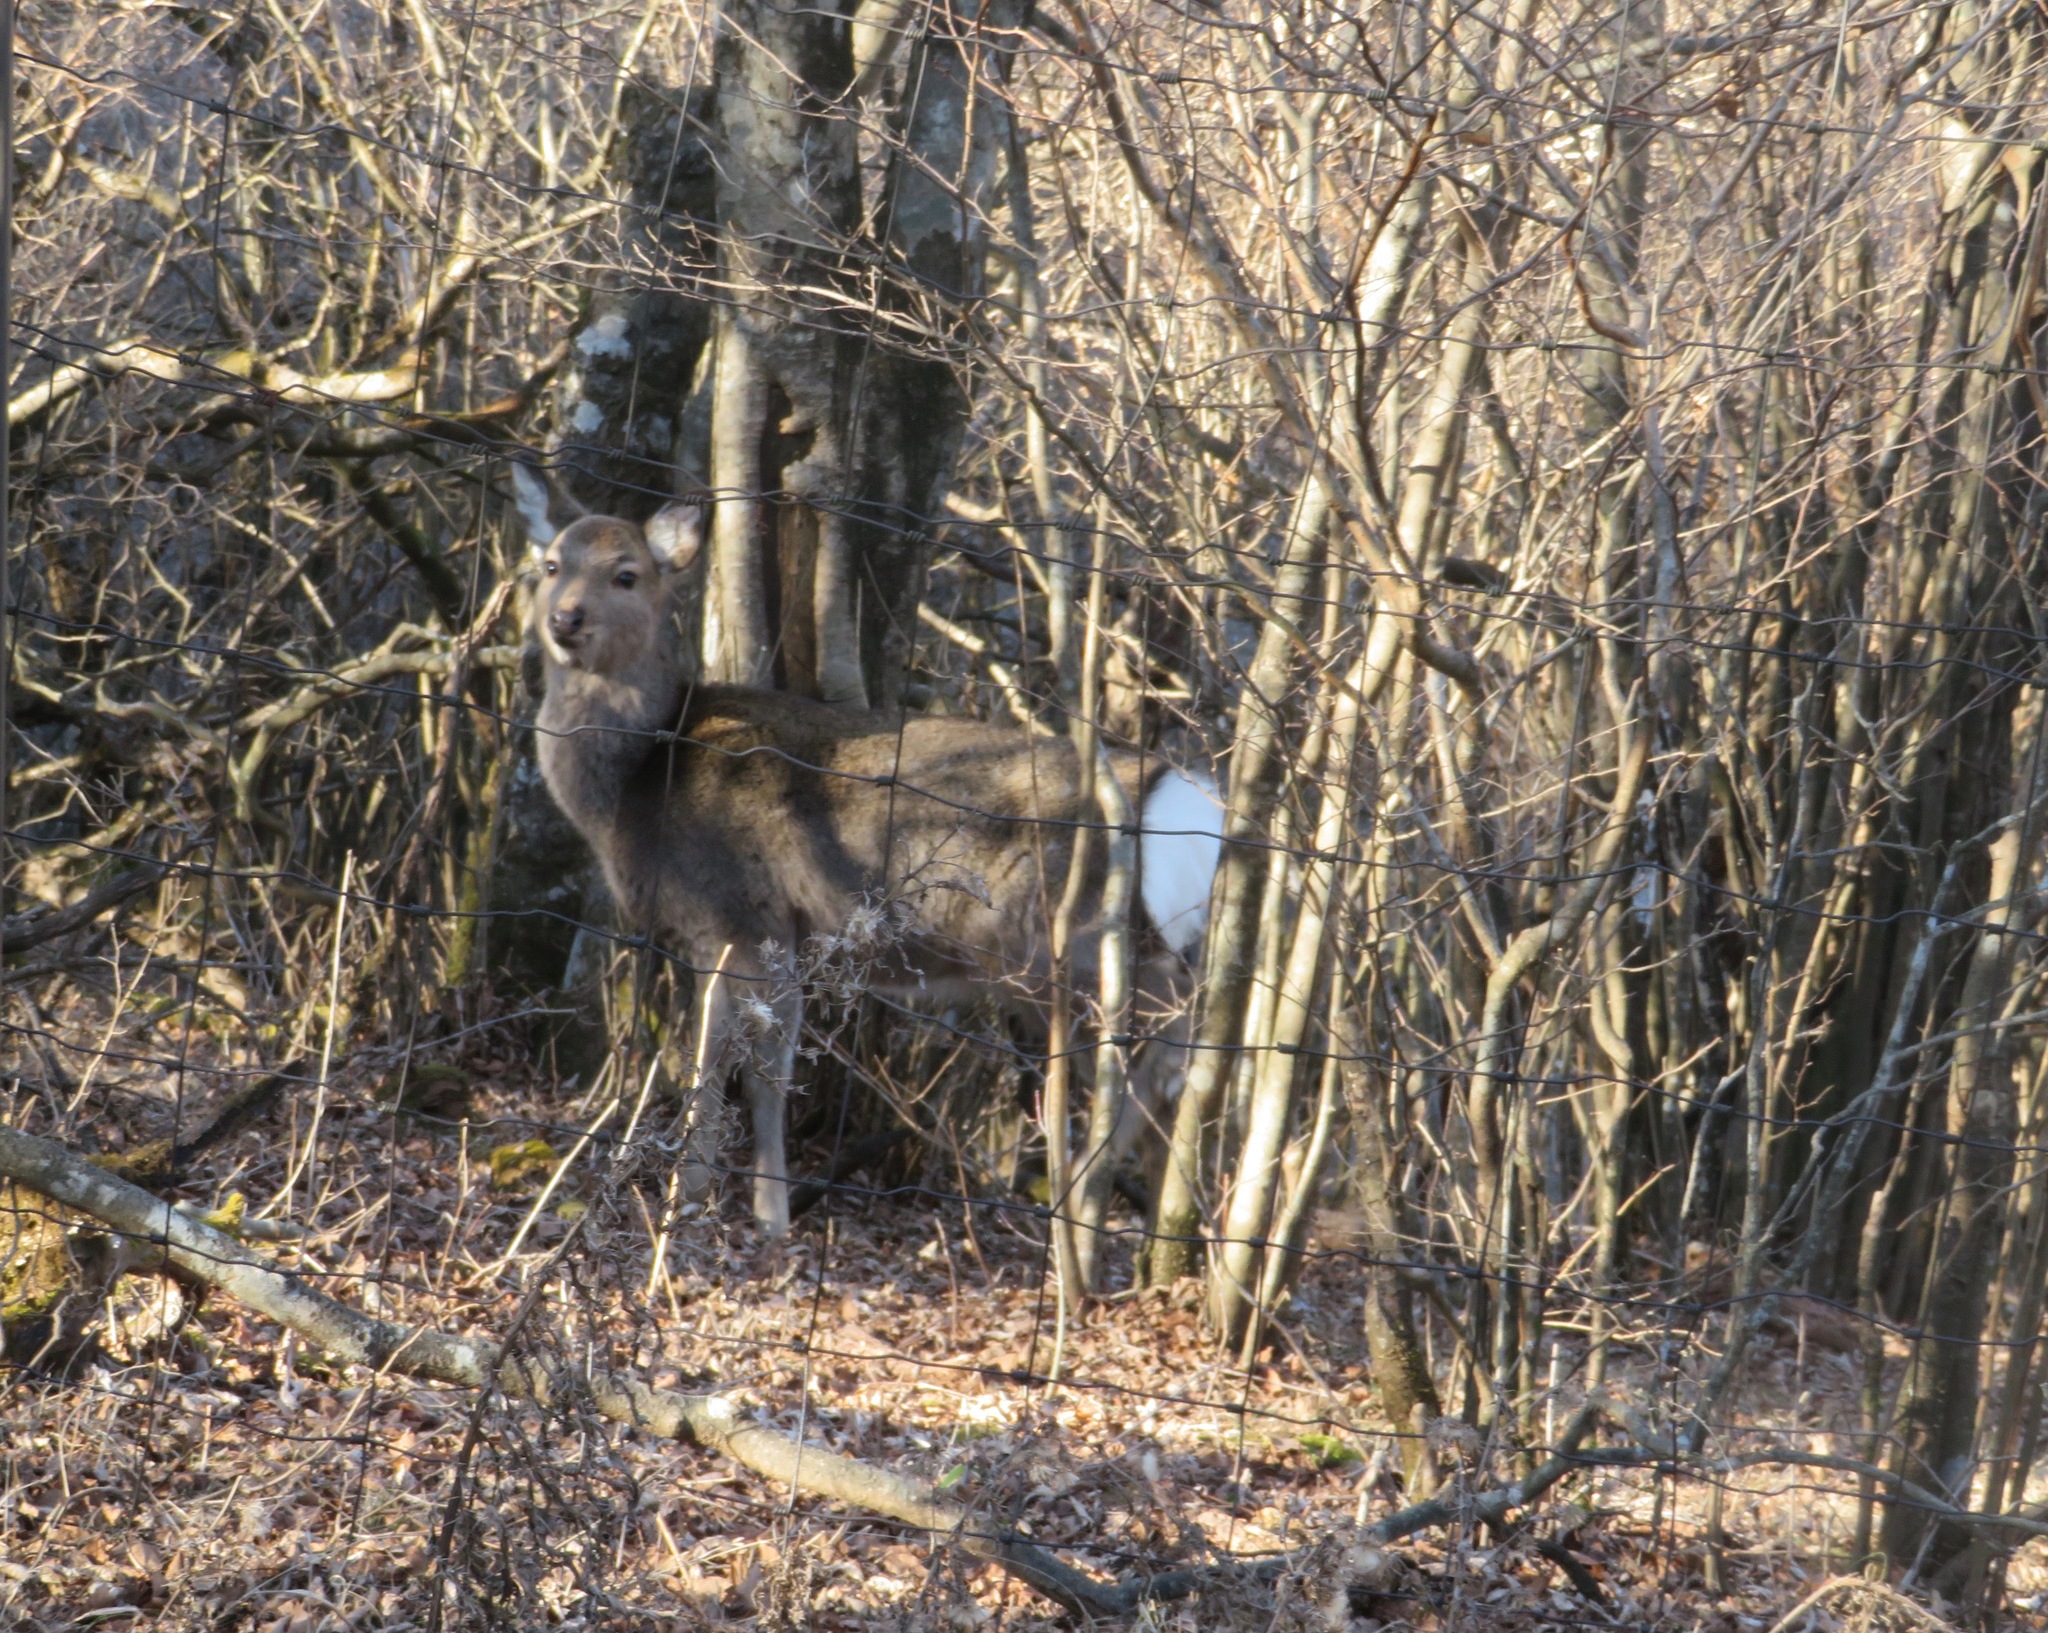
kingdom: Animalia
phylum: Chordata
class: Mammalia
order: Artiodactyla
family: Cervidae
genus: Cervus
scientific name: Cervus nippon
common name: Sika deer
